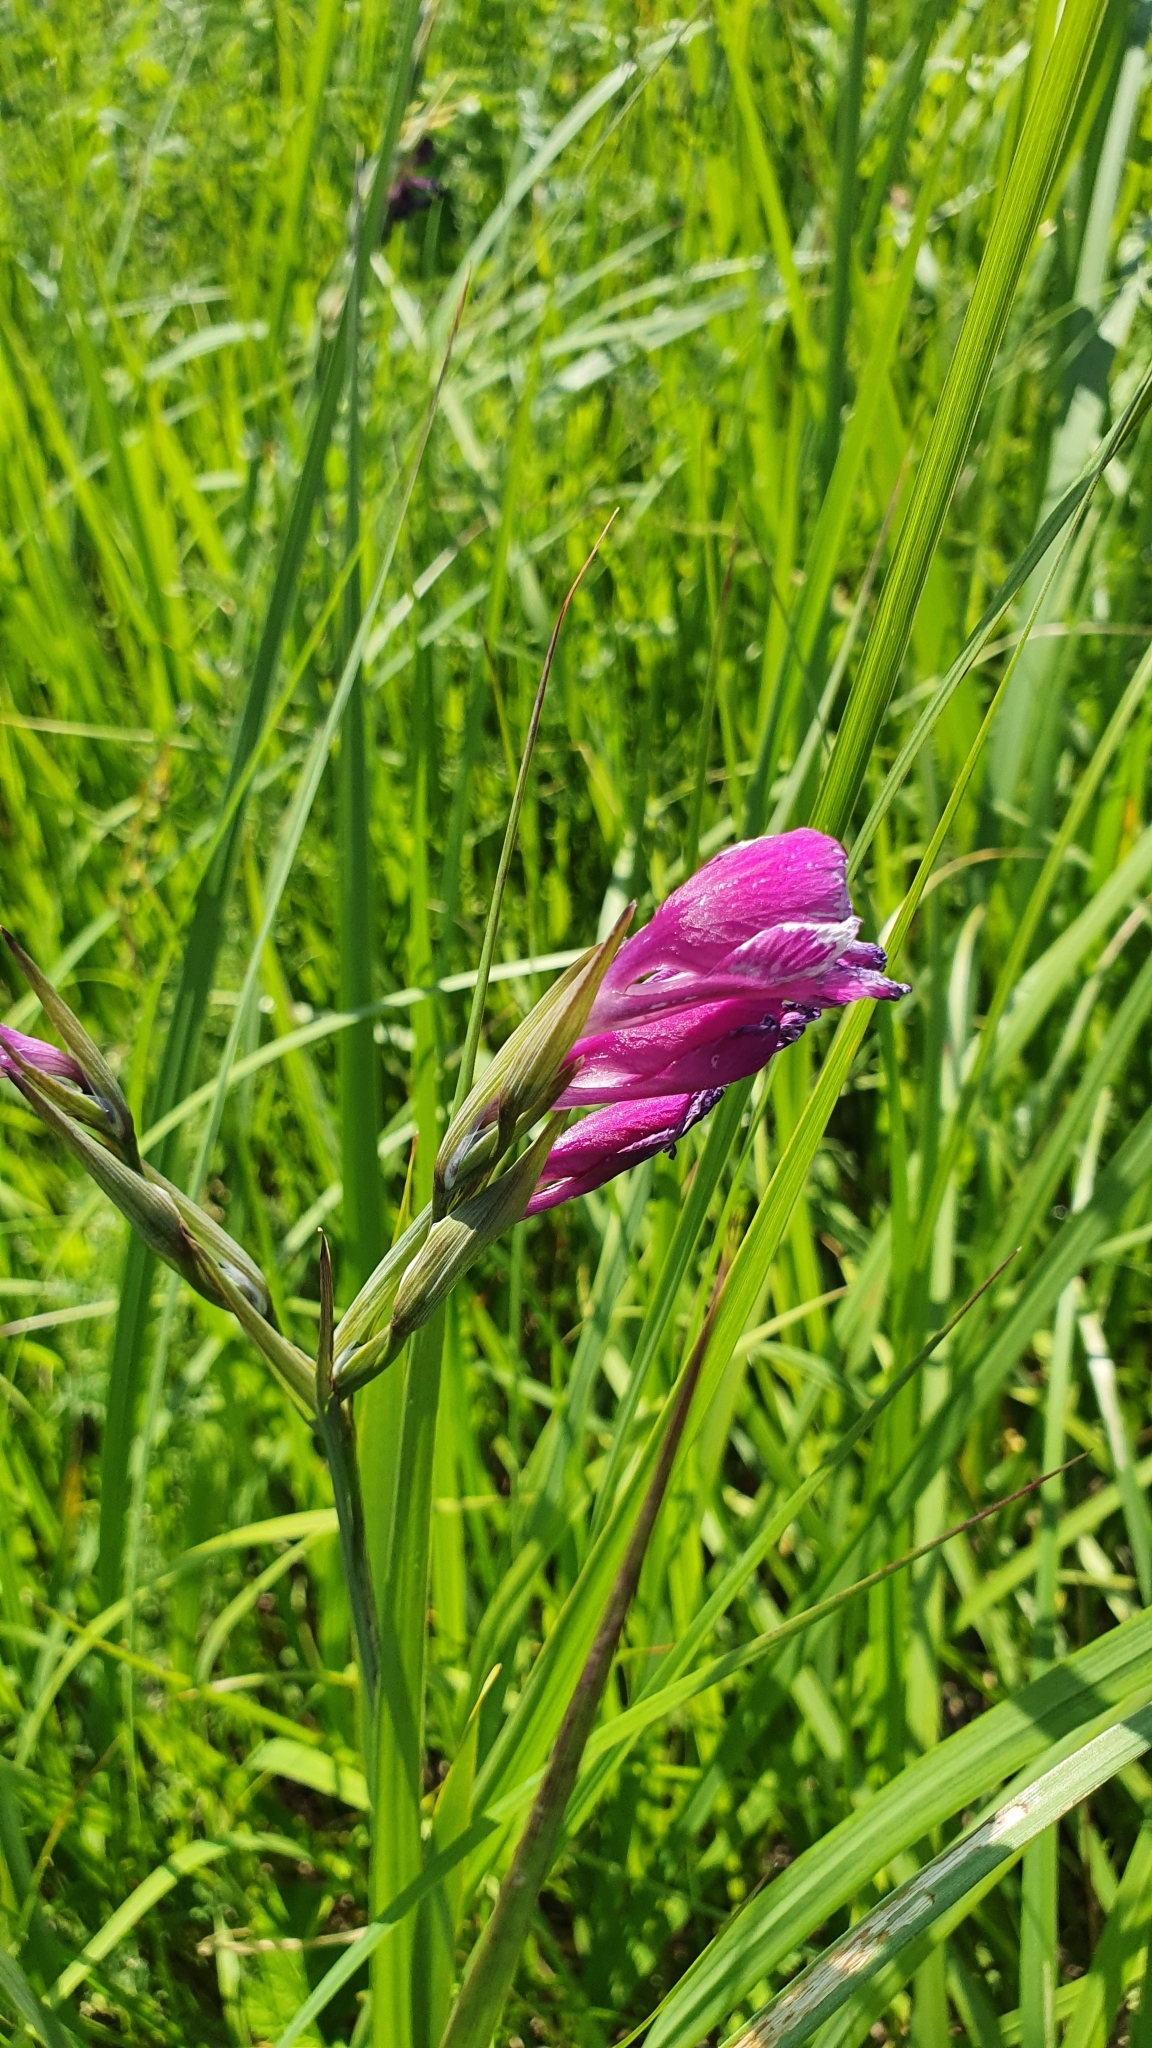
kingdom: Plantae
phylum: Tracheophyta
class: Liliopsida
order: Asparagales
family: Iridaceae
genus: Gladiolus
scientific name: Gladiolus tenuis
